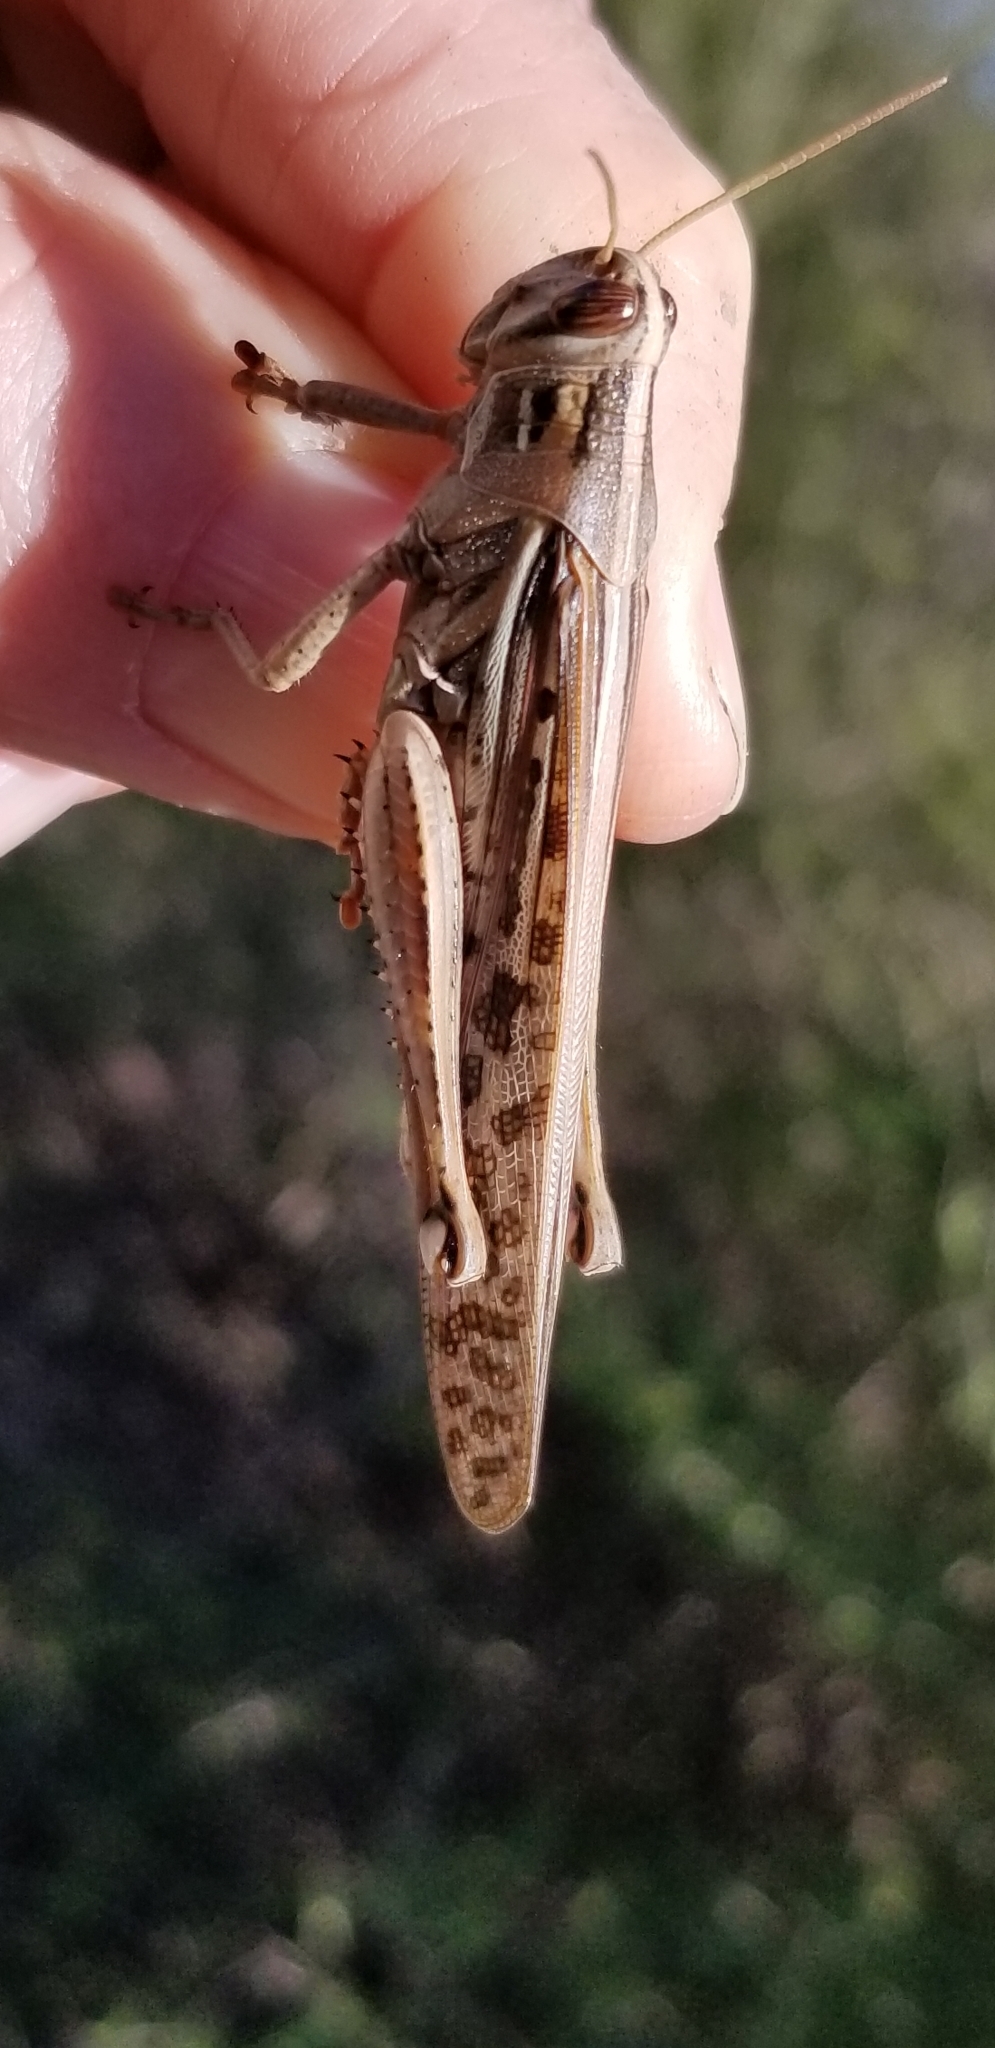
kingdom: Animalia
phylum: Arthropoda
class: Insecta
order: Orthoptera
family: Acrididae
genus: Schistocerca
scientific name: Schistocerca americana
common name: American bird locust
